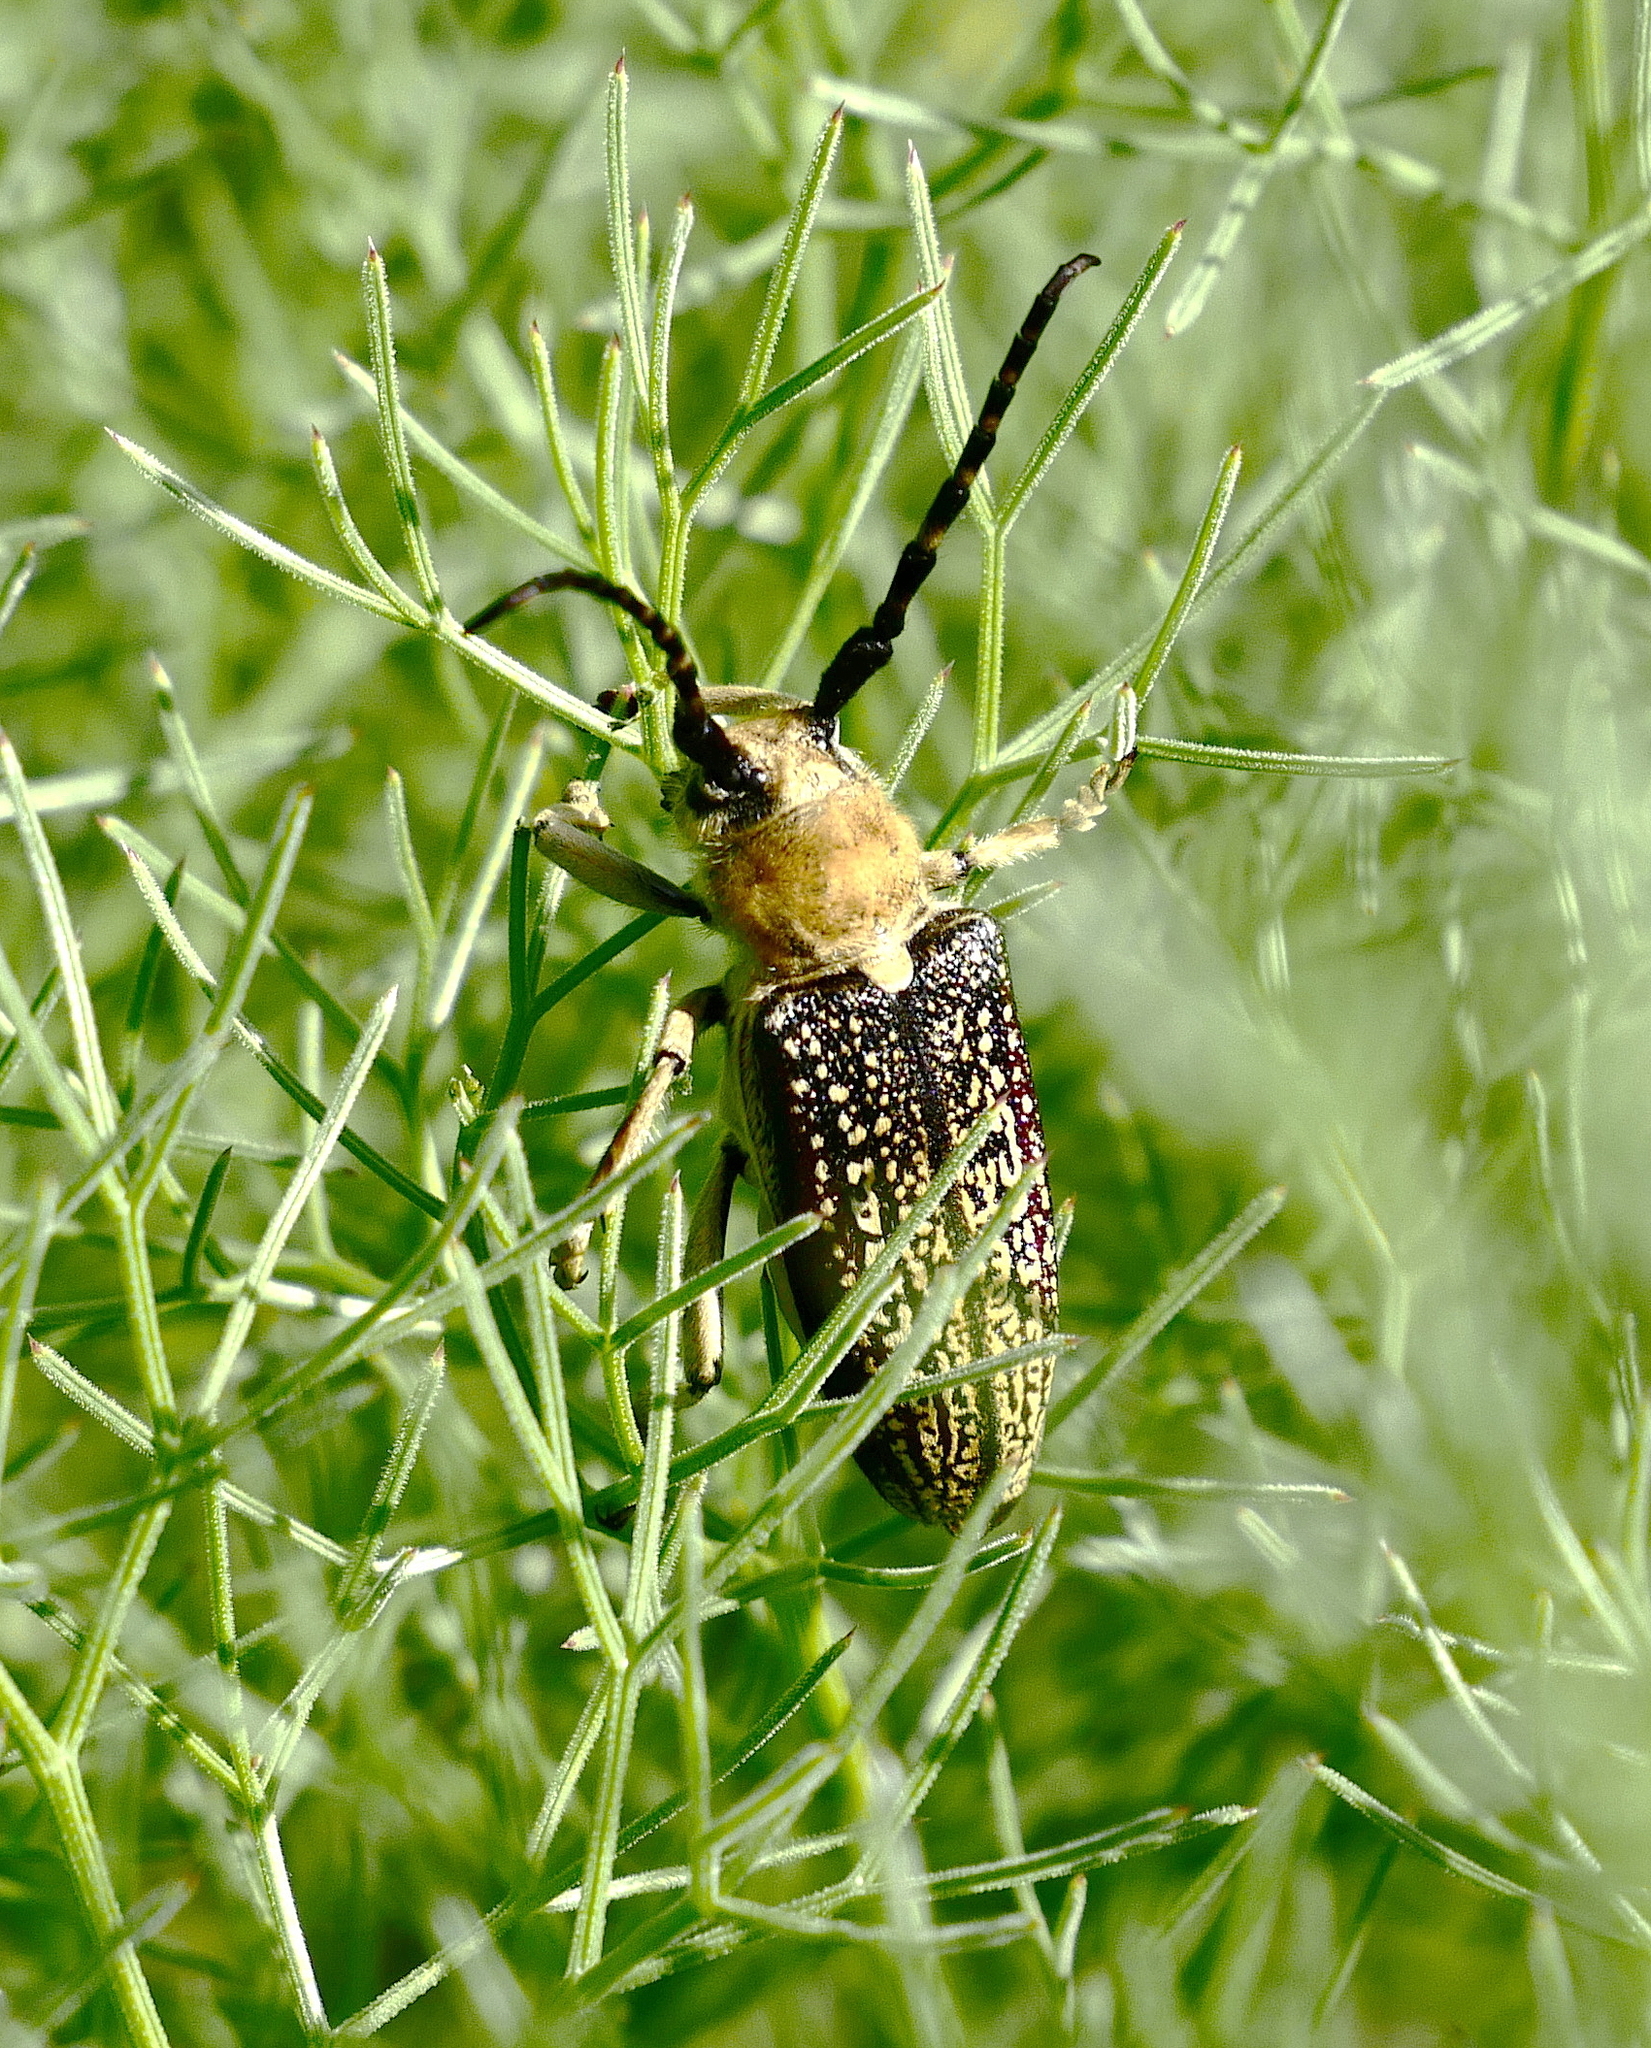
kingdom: Animalia
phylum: Arthropoda
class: Insecta
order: Coleoptera
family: Cerambycidae
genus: Mallosia
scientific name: Mallosia galinae
